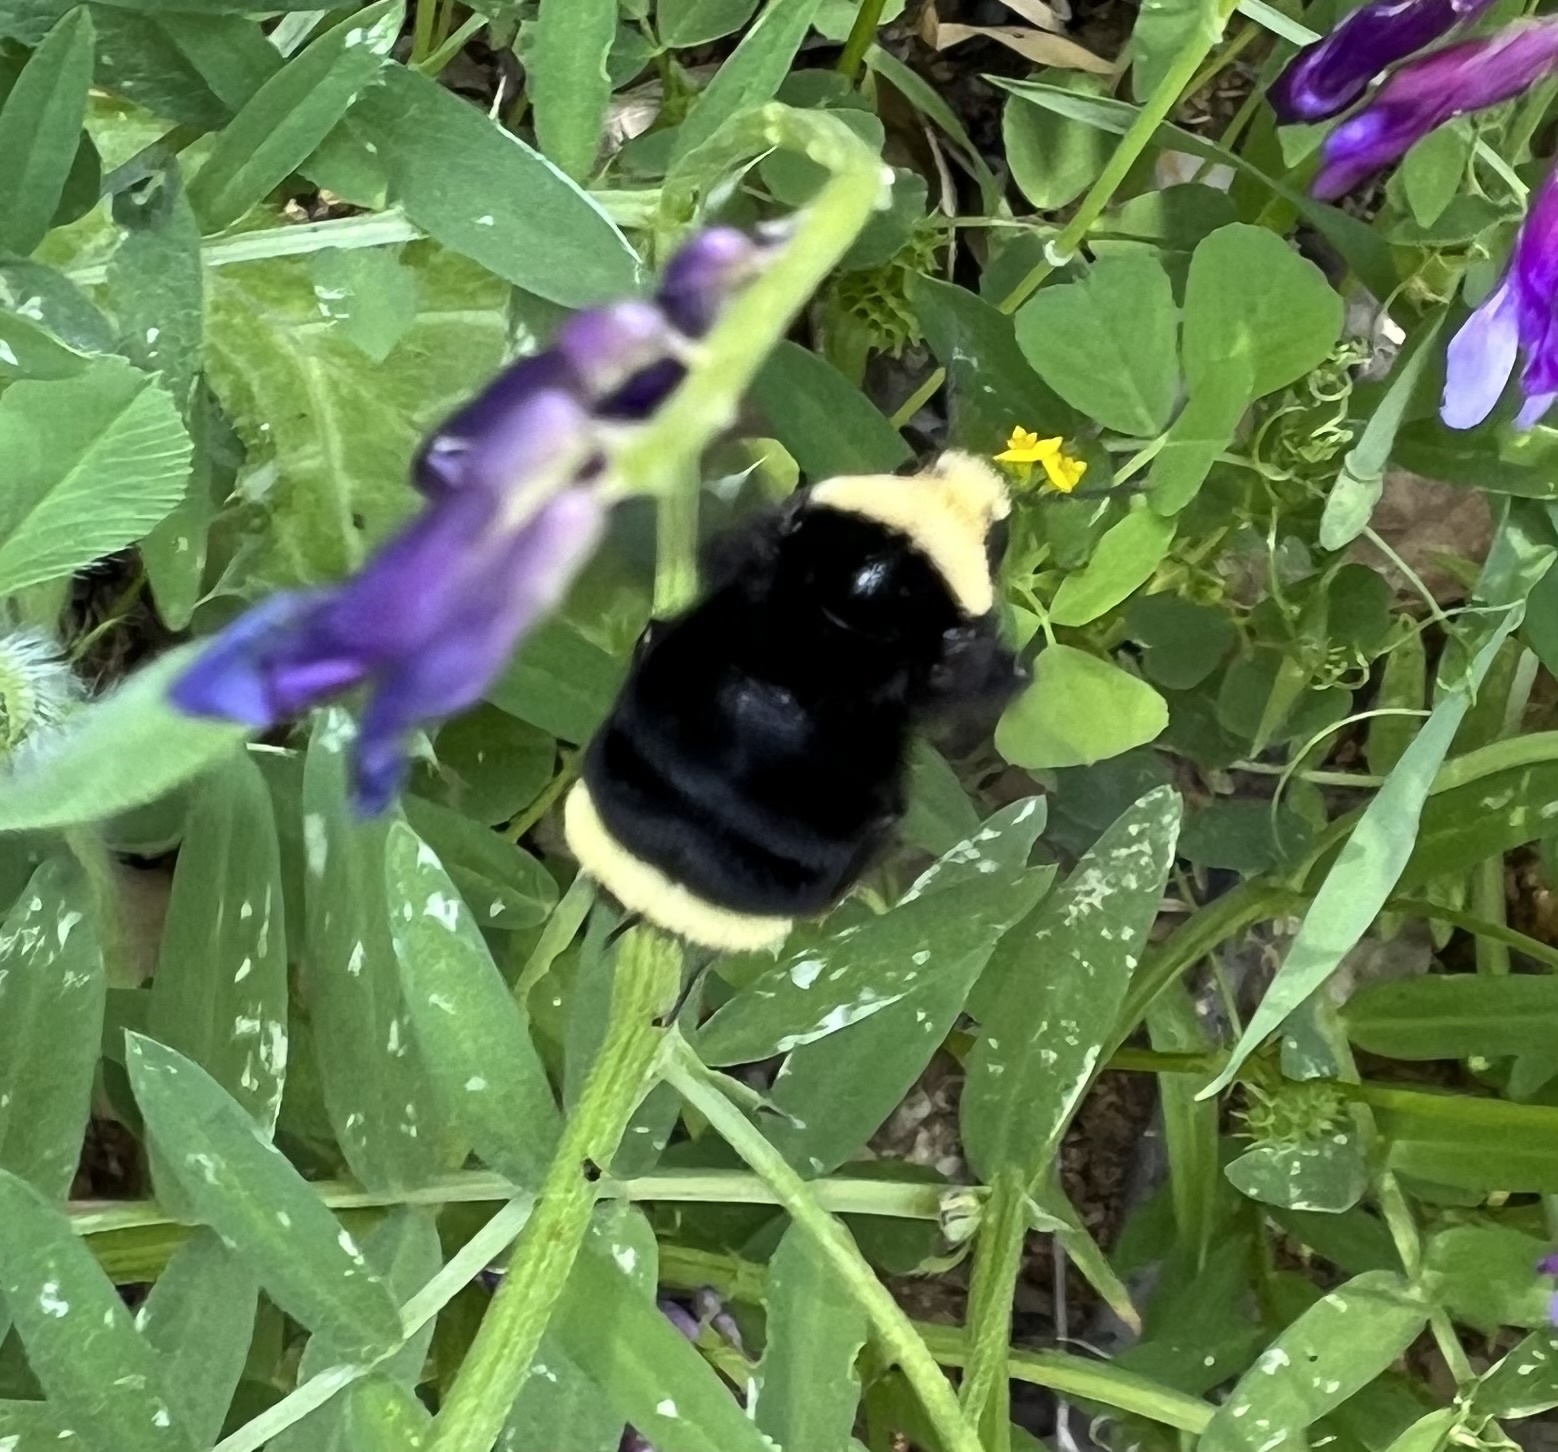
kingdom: Animalia
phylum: Arthropoda
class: Insecta
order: Hymenoptera
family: Apidae
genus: Bombus
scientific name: Bombus vosnesenskii
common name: Vosnesensky bumble bee
